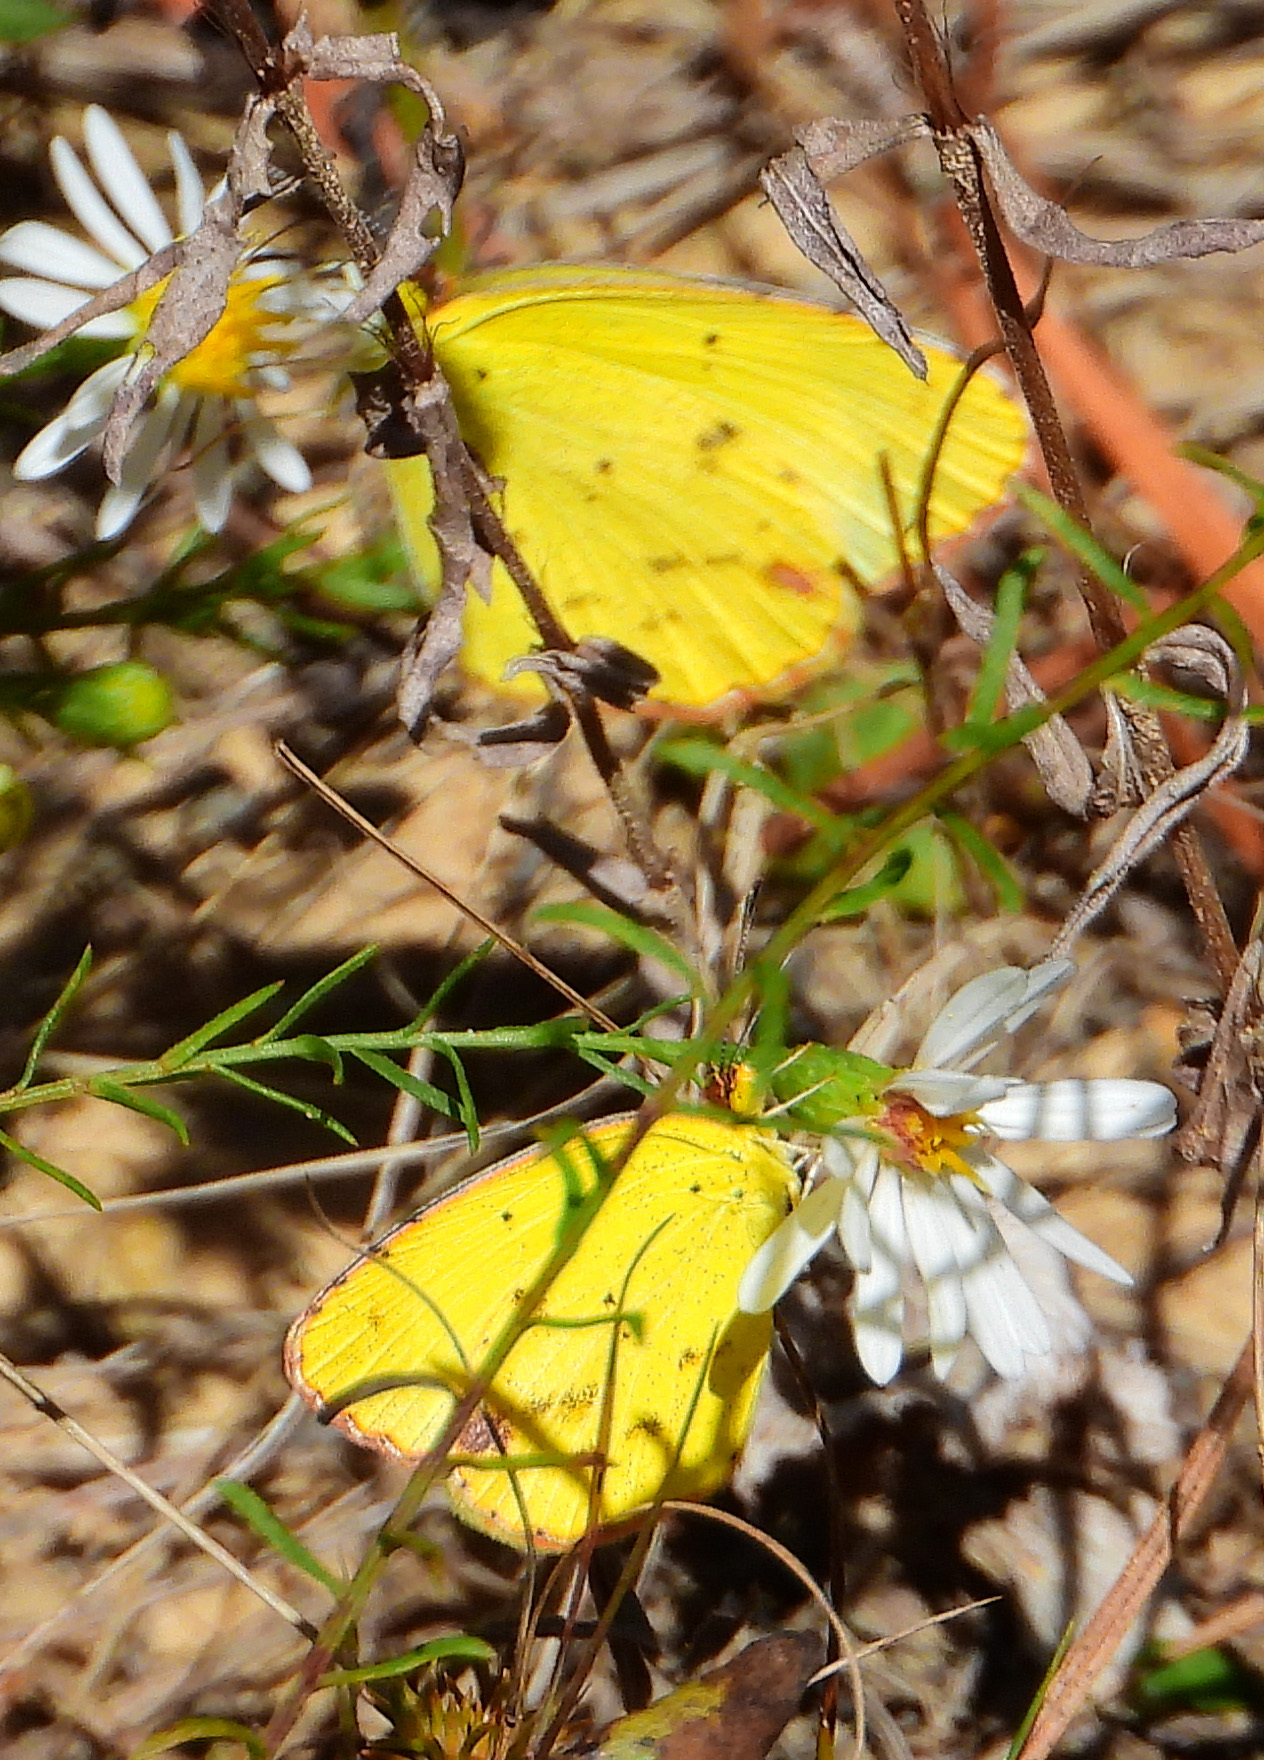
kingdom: Animalia
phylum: Arthropoda
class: Insecta
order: Lepidoptera
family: Pieridae
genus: Pyrisitia
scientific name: Pyrisitia lisa
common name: Little yellow
